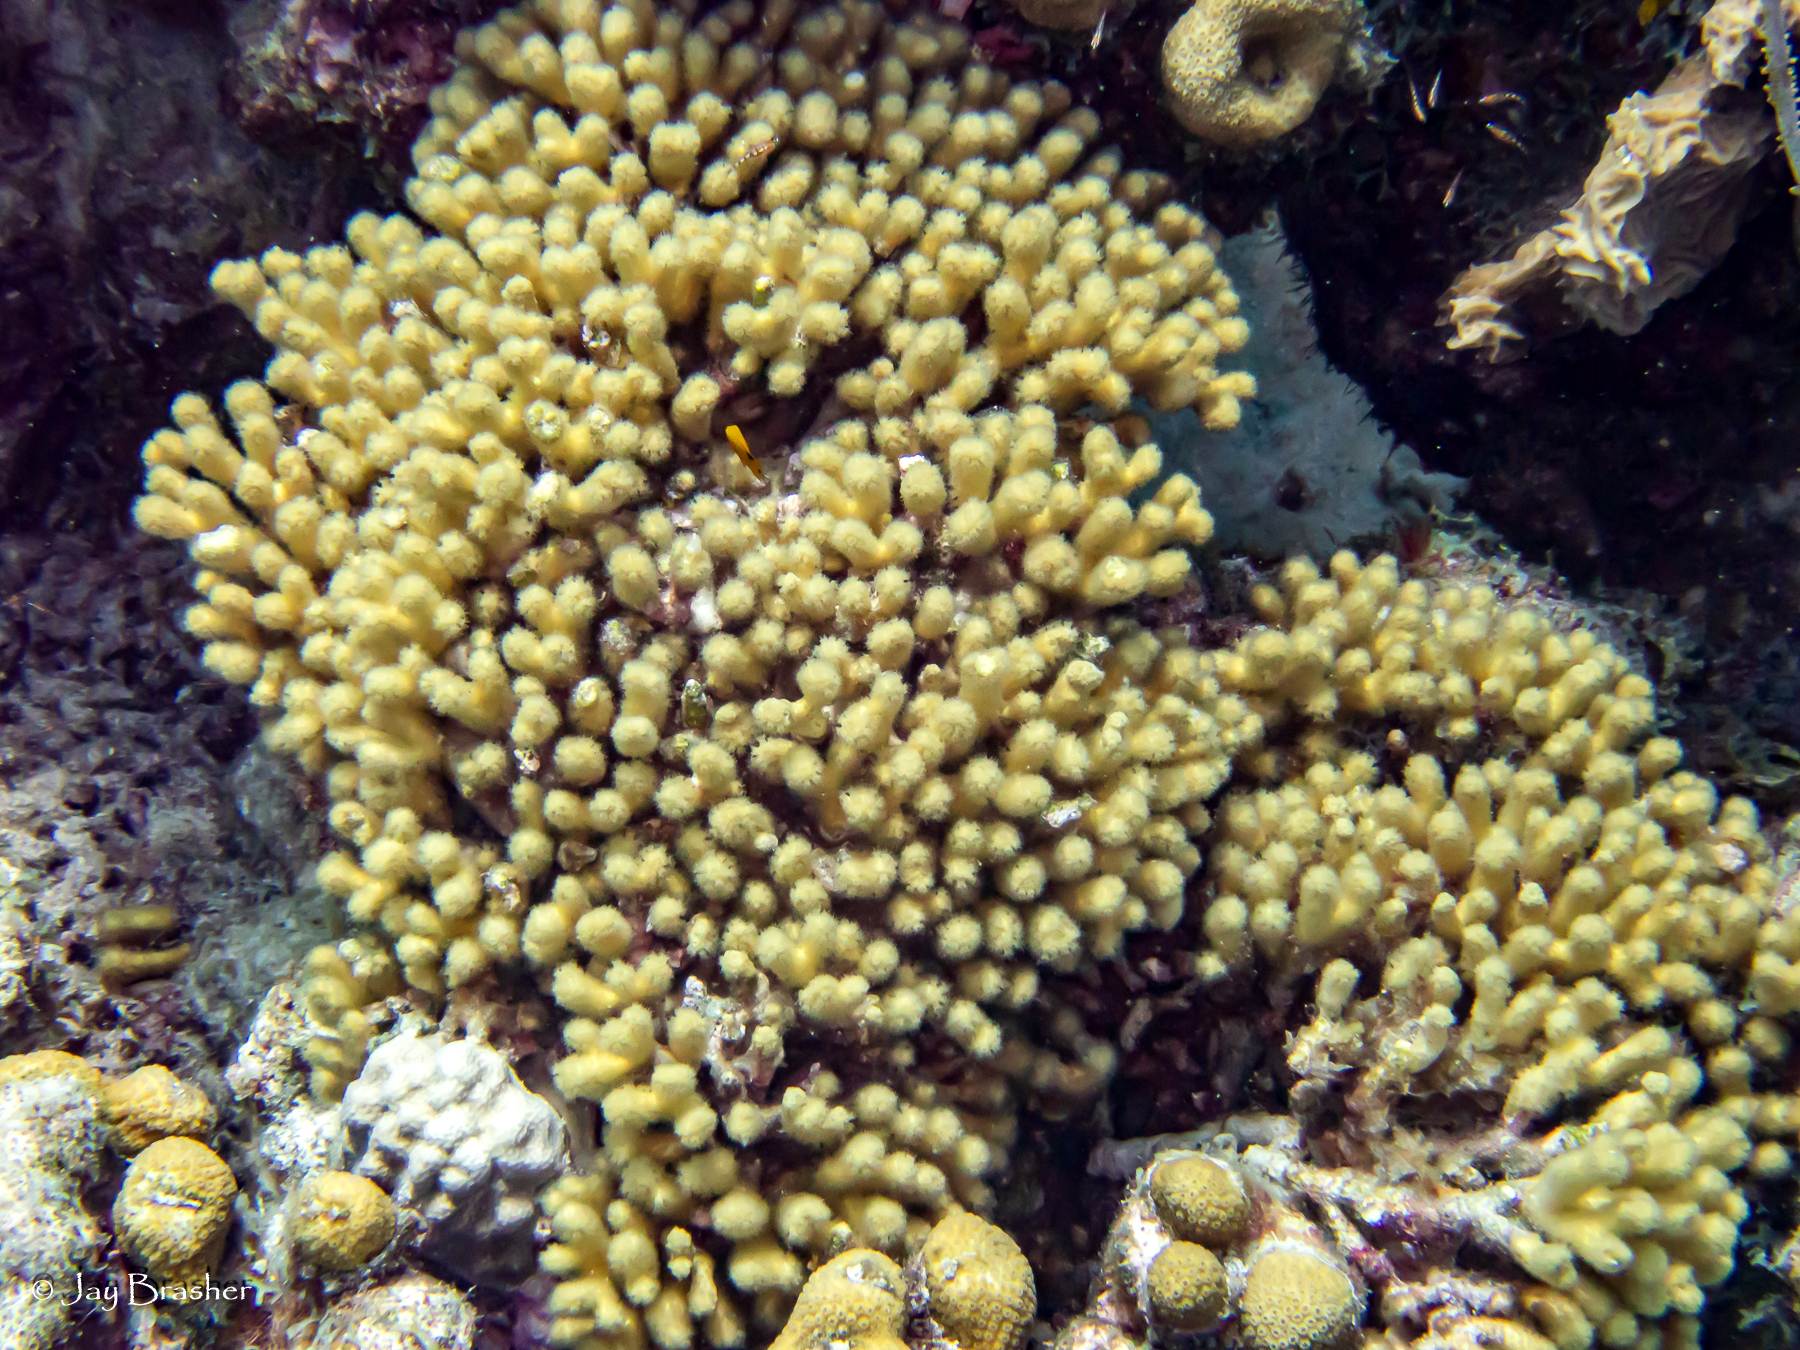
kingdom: Animalia
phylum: Cnidaria
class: Anthozoa
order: Scleractinia
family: Pocilloporidae
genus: Madracis
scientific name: Madracis auretenra
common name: Yellow pencil coral
